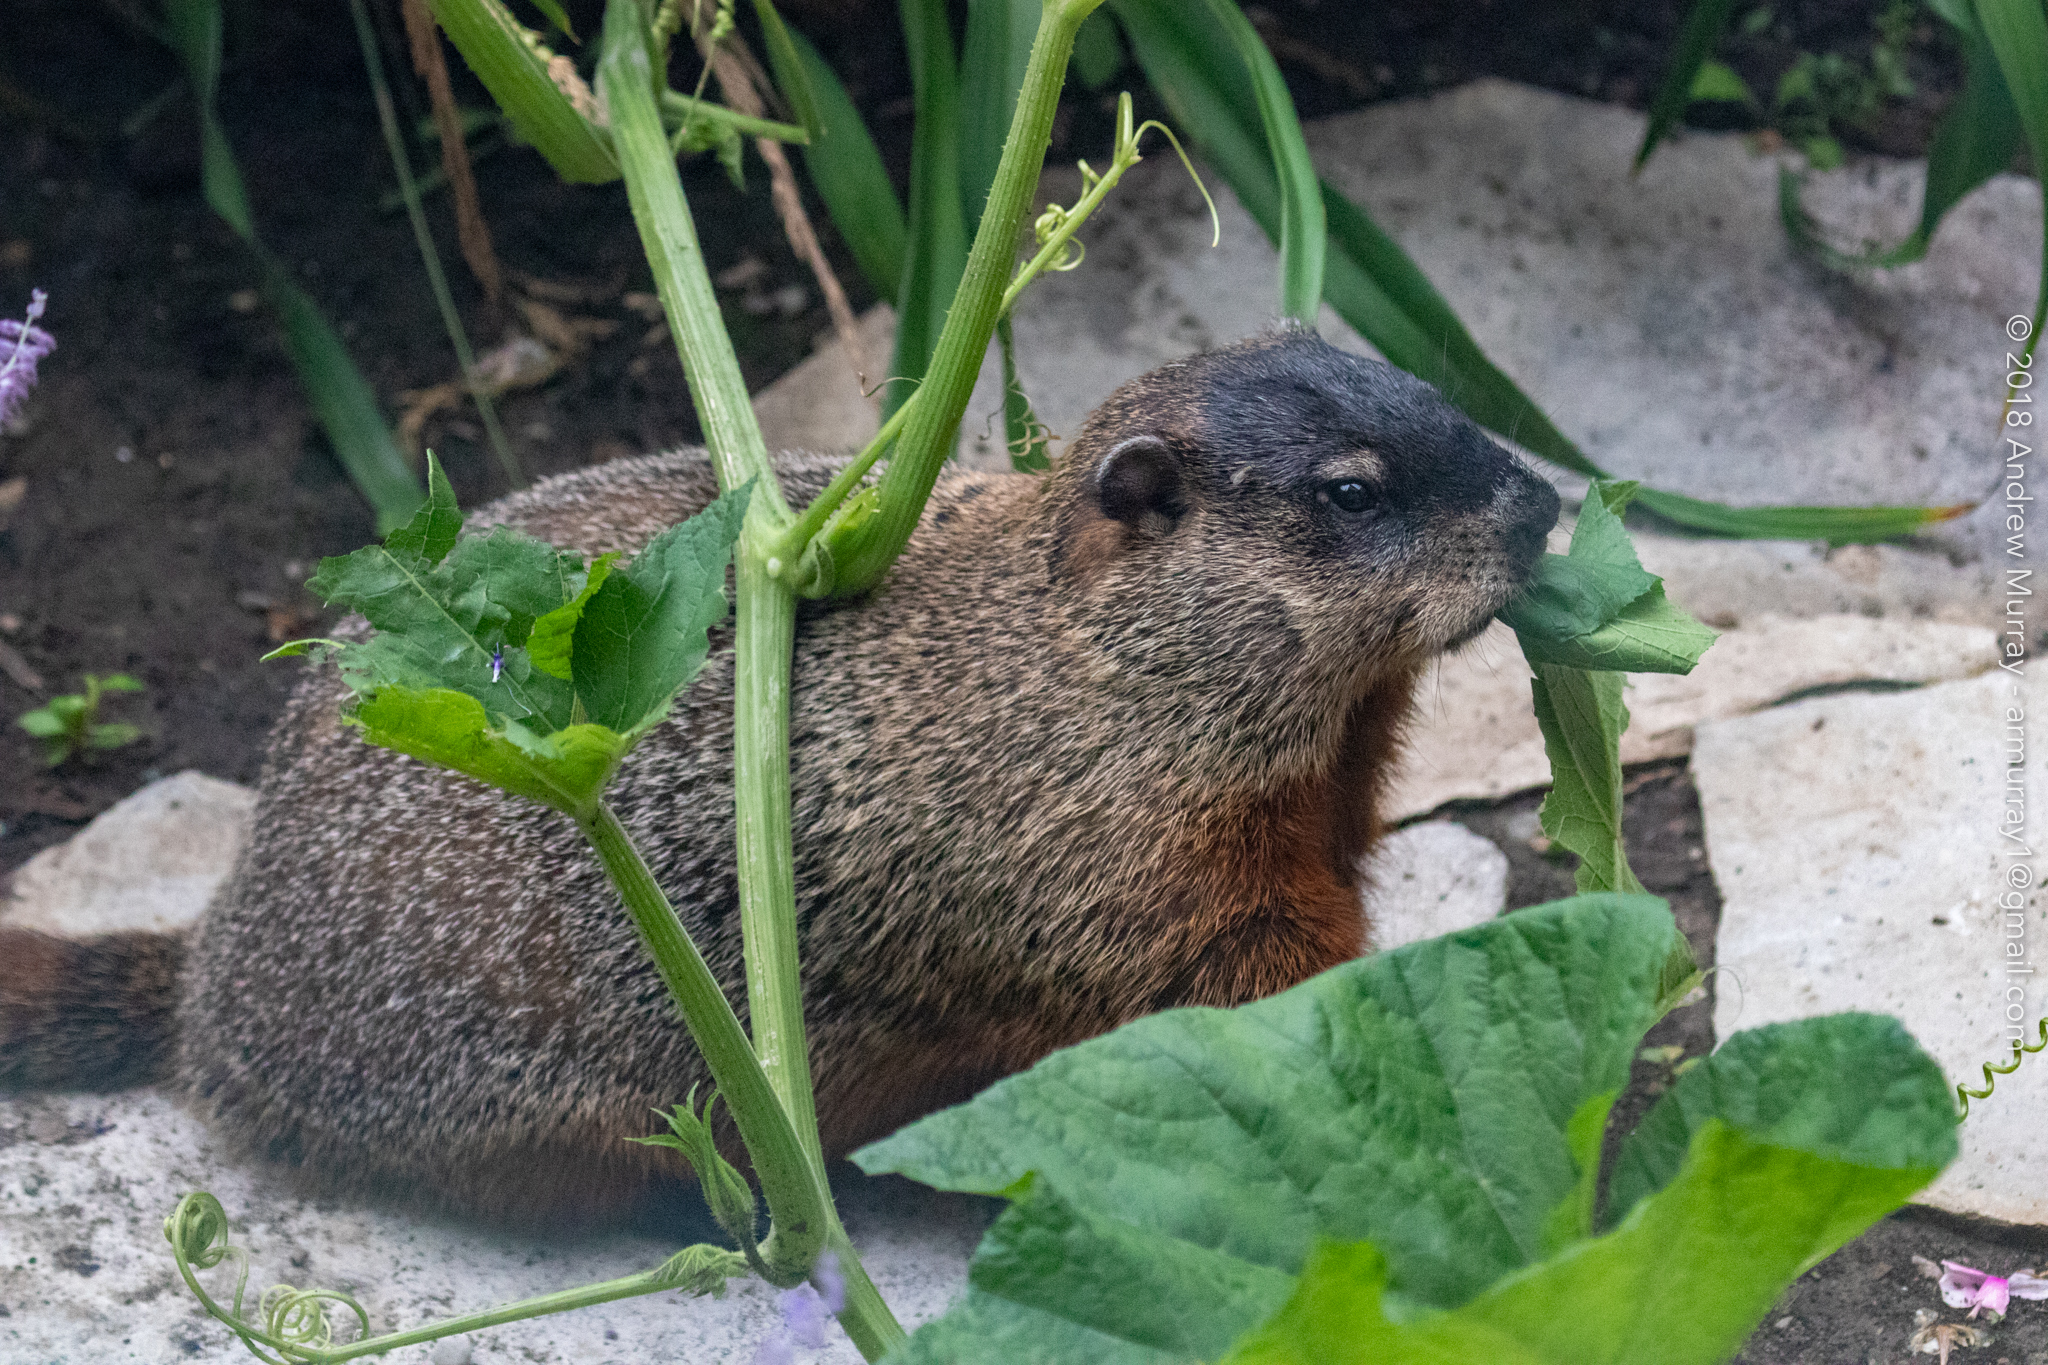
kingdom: Animalia
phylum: Chordata
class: Mammalia
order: Rodentia
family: Sciuridae
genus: Marmota
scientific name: Marmota monax
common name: Groundhog
